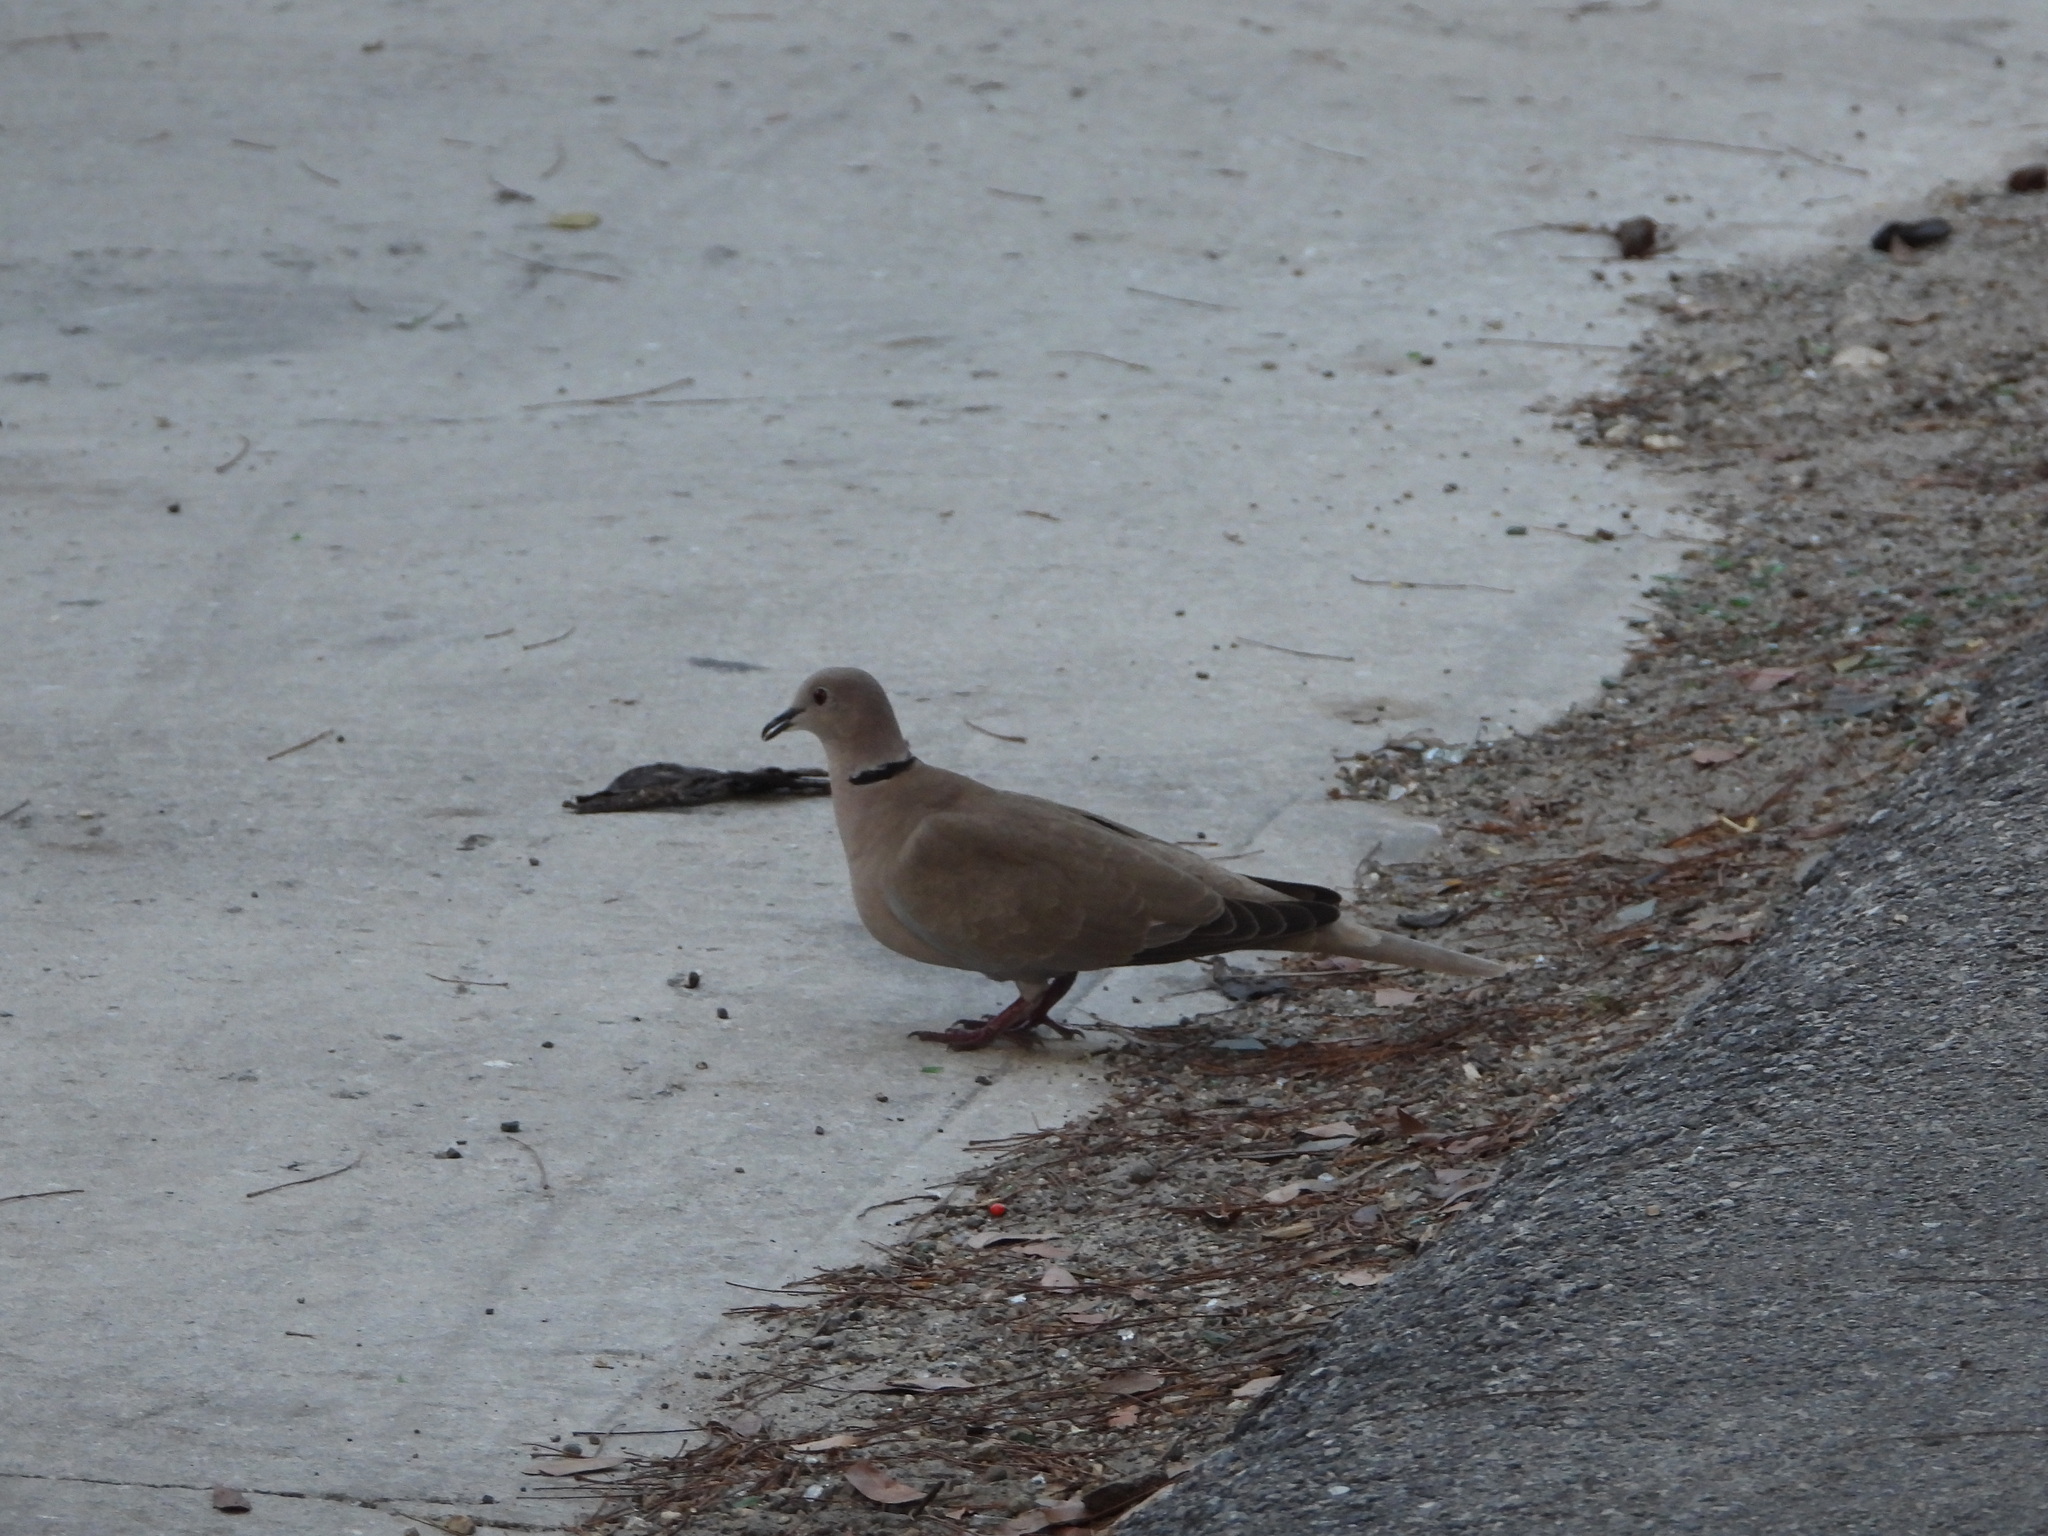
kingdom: Animalia
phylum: Chordata
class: Aves
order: Columbiformes
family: Columbidae
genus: Streptopelia
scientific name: Streptopelia decaocto
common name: Eurasian collared dove
